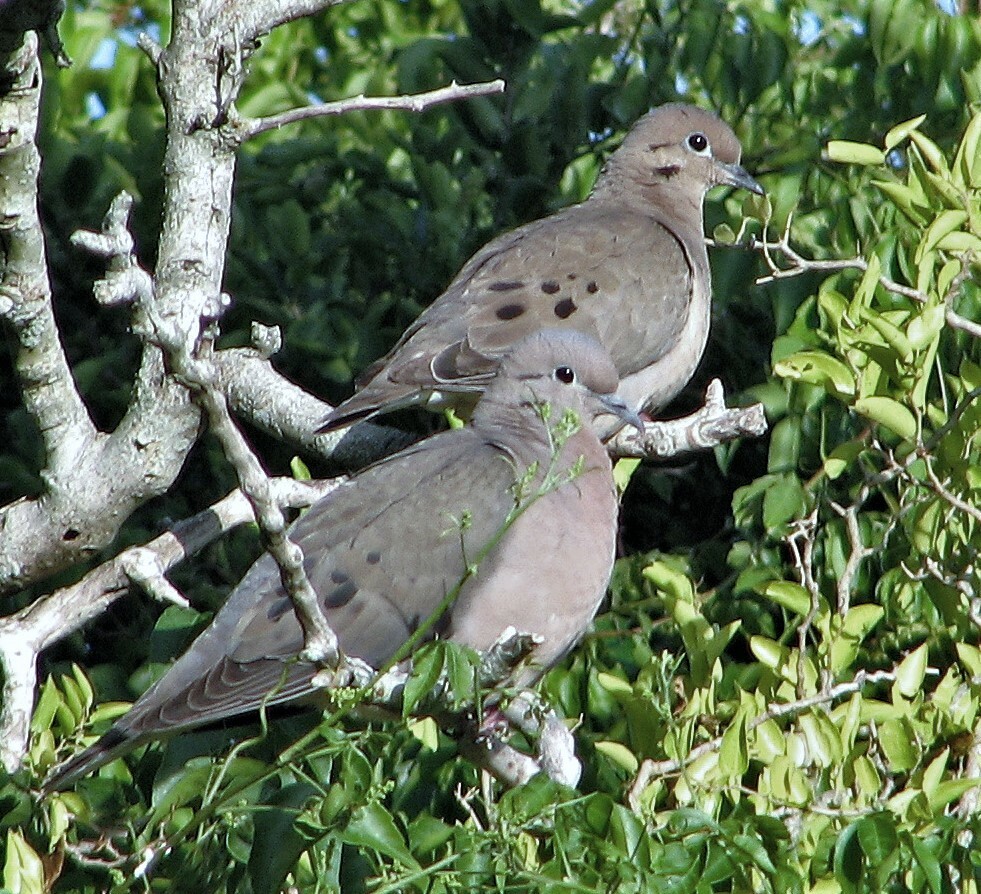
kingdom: Animalia
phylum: Chordata
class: Aves
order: Columbiformes
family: Columbidae
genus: Zenaida
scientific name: Zenaida auriculata
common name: Eared dove
